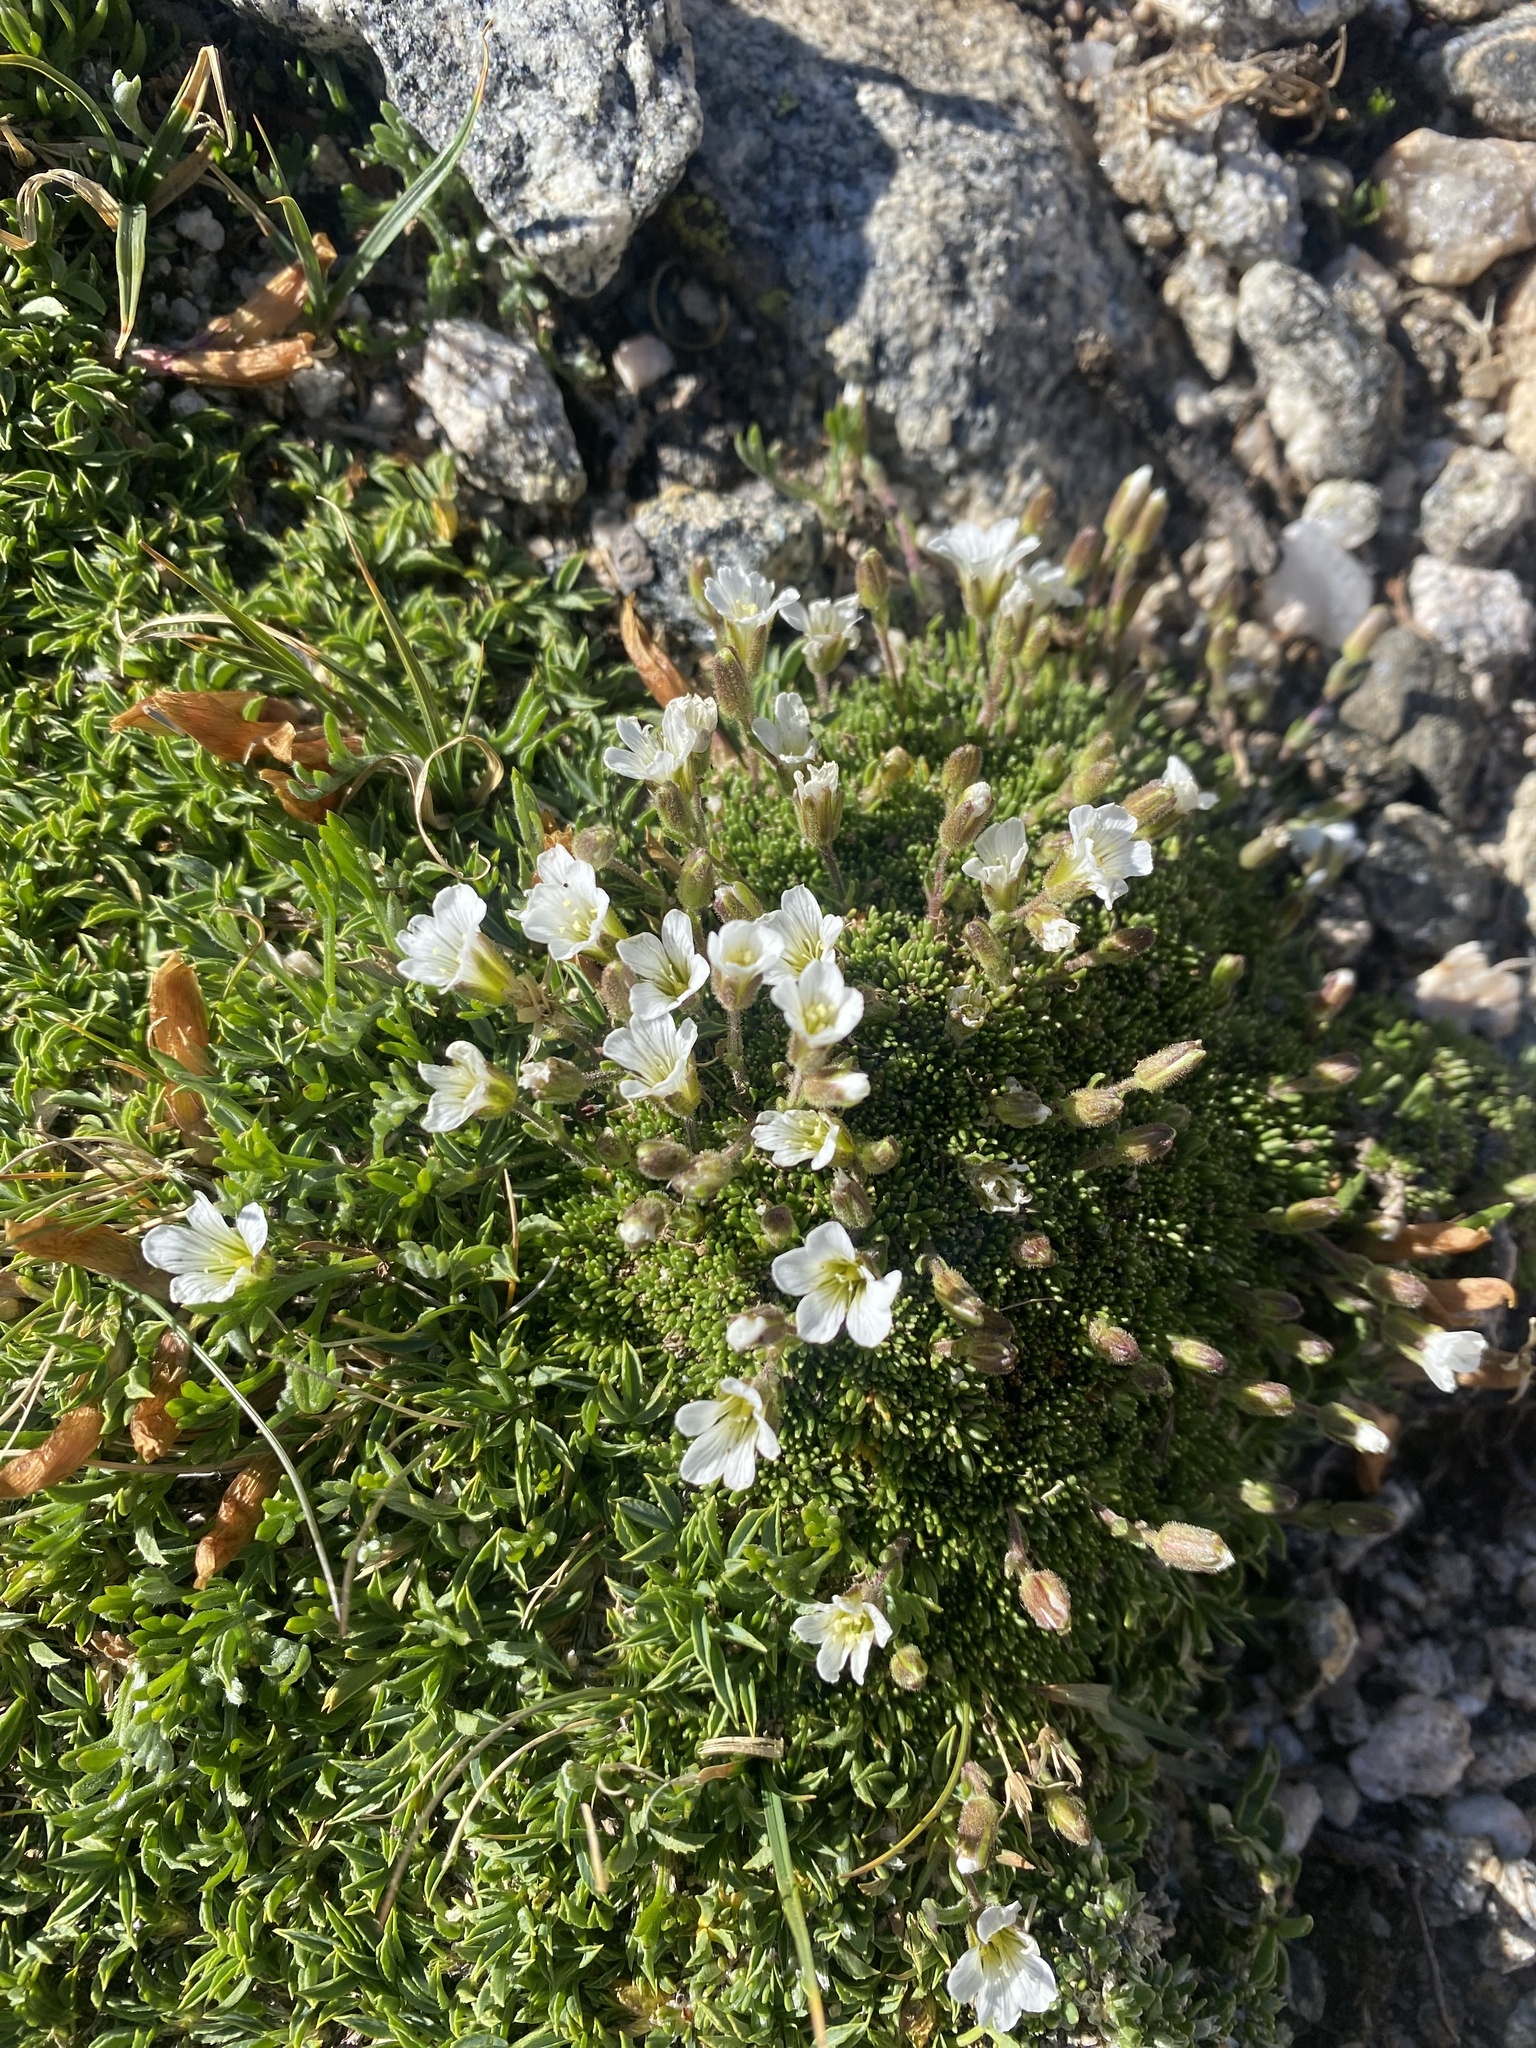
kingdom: Plantae
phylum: Tracheophyta
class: Magnoliopsida
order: Caryophyllales
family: Caryophyllaceae
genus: Cherleria
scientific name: Cherleria obtusiloba
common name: Alpine stitchwort
